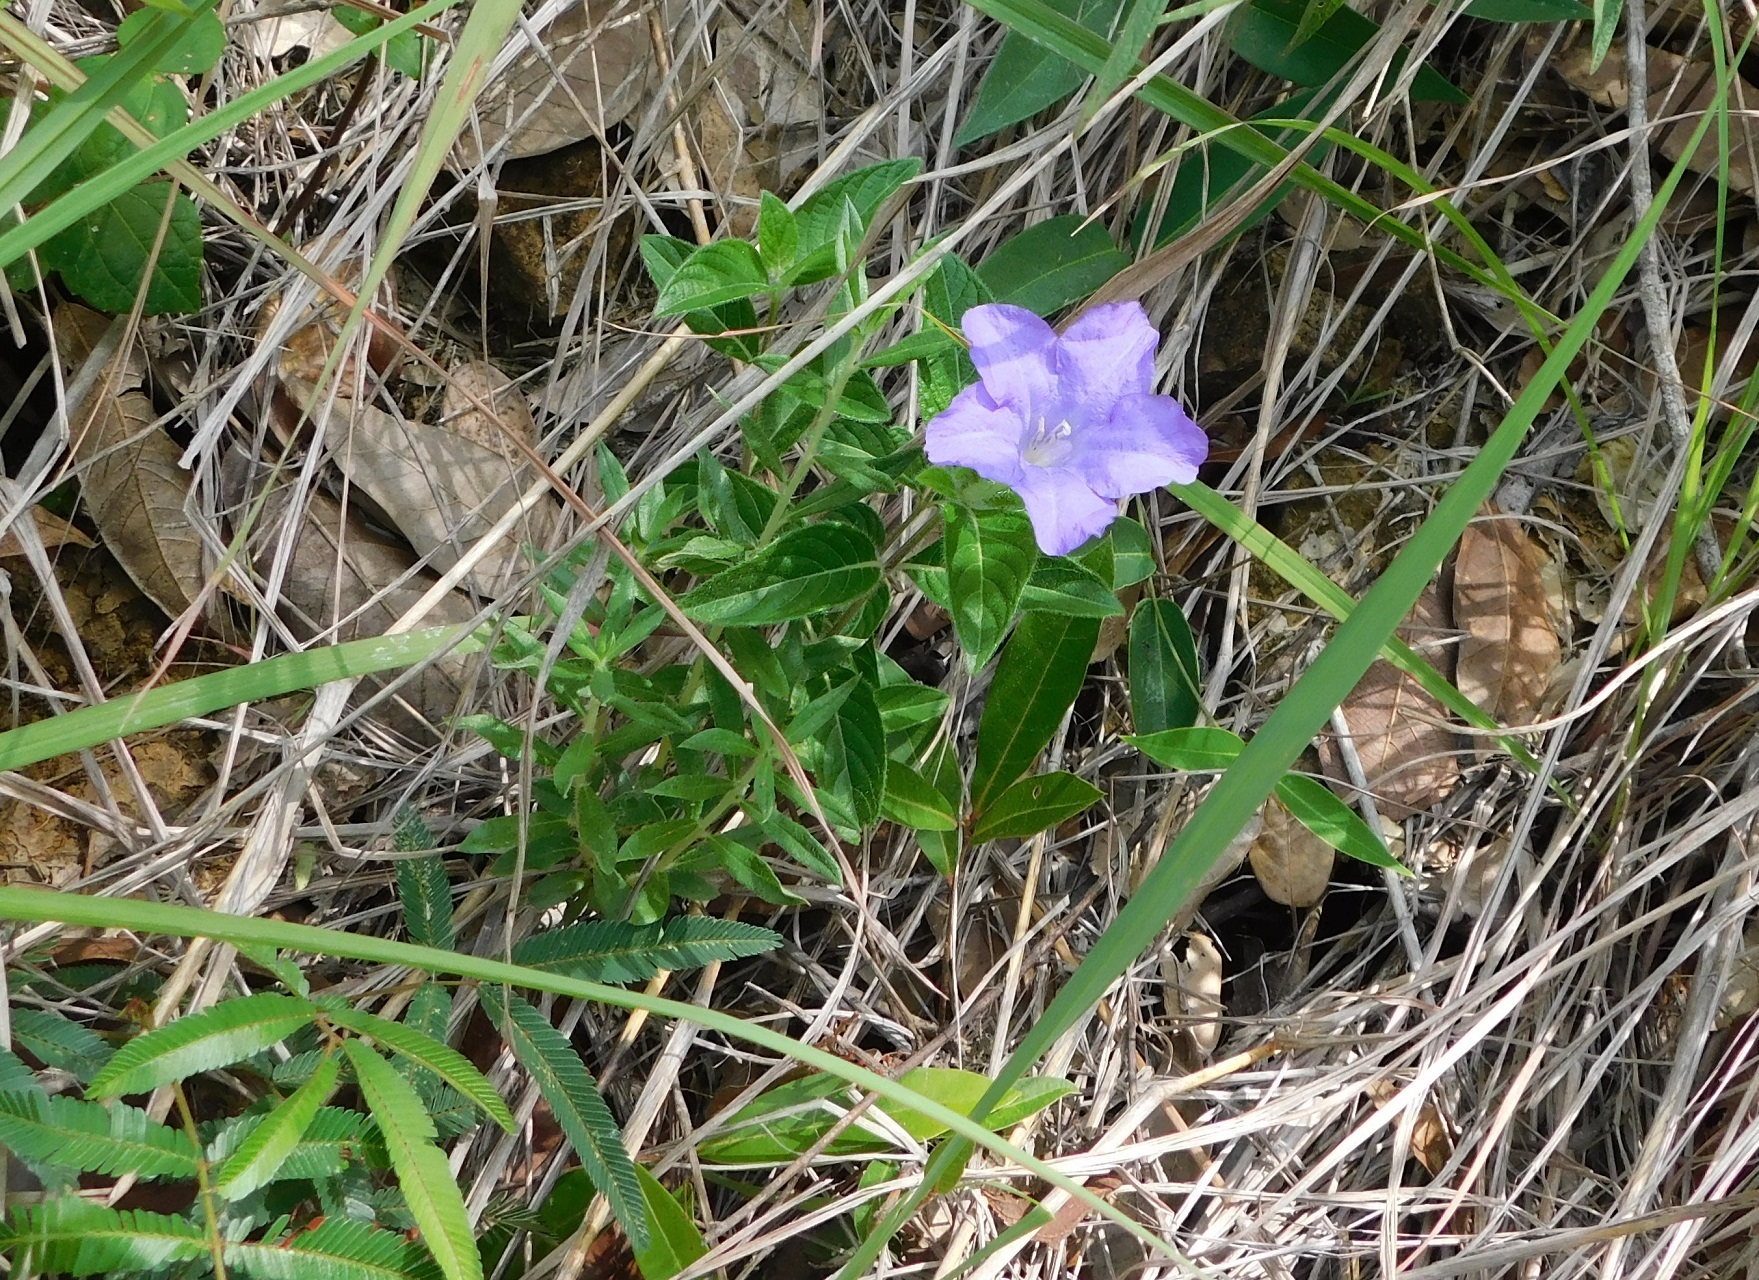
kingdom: Plantae
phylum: Tracheophyta
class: Magnoliopsida
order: Lamiales
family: Acanthaceae
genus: Ruellia
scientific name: Ruellia hookeriana
